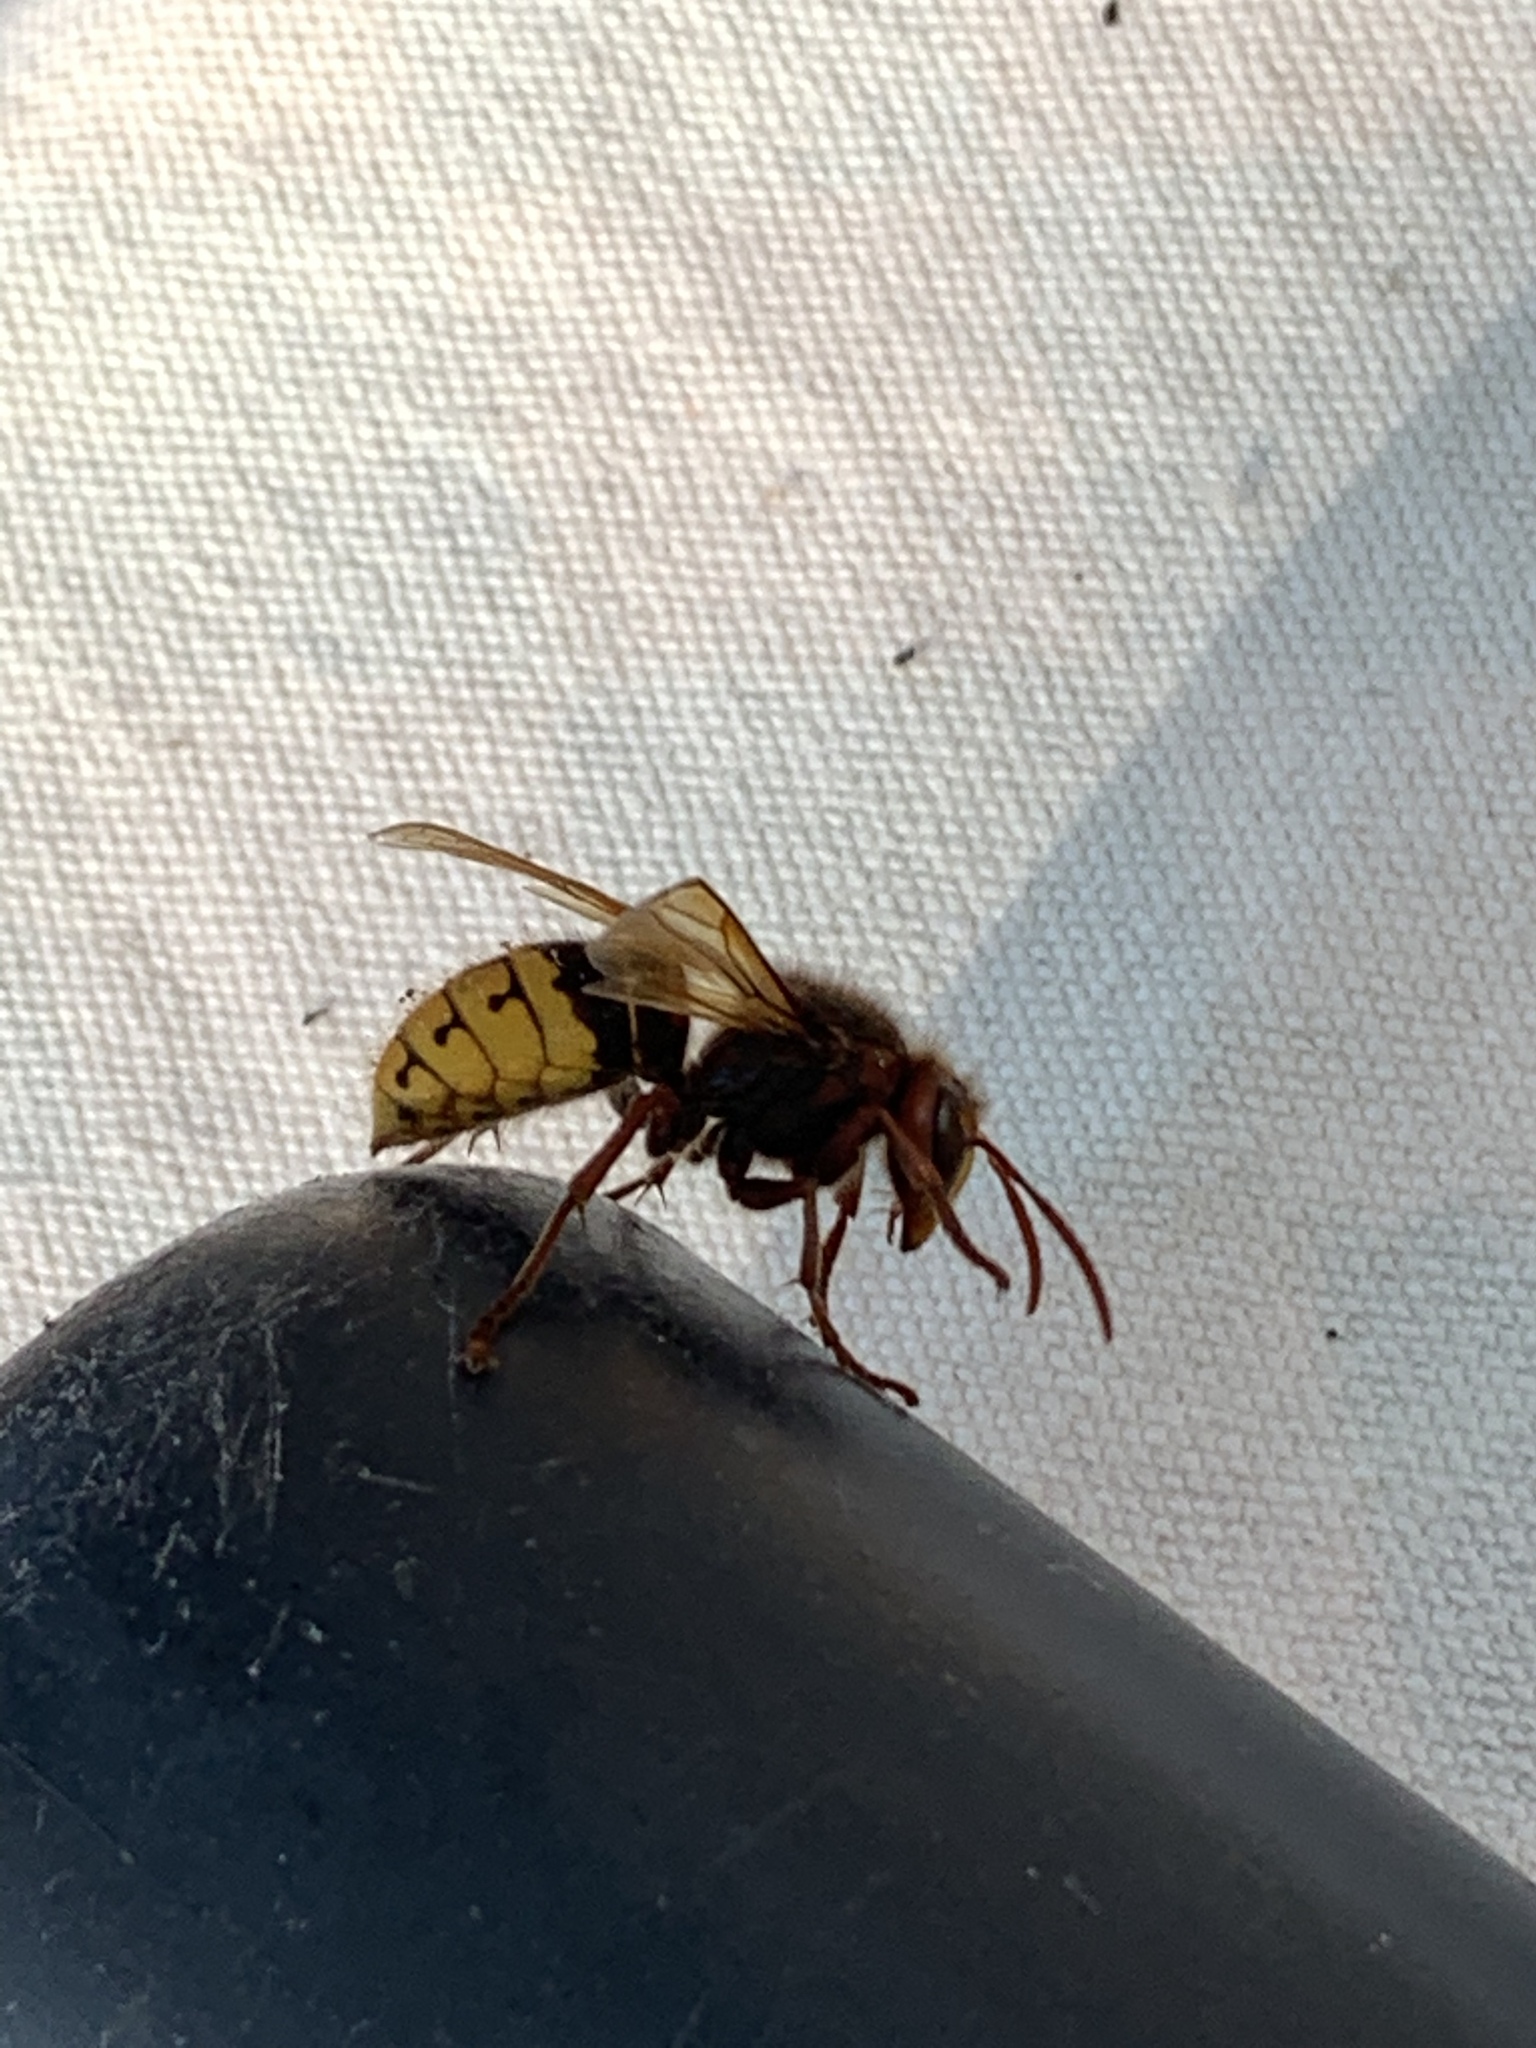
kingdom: Animalia
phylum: Arthropoda
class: Insecta
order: Hymenoptera
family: Vespidae
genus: Vespa
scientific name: Vespa crabro
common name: Hornet
